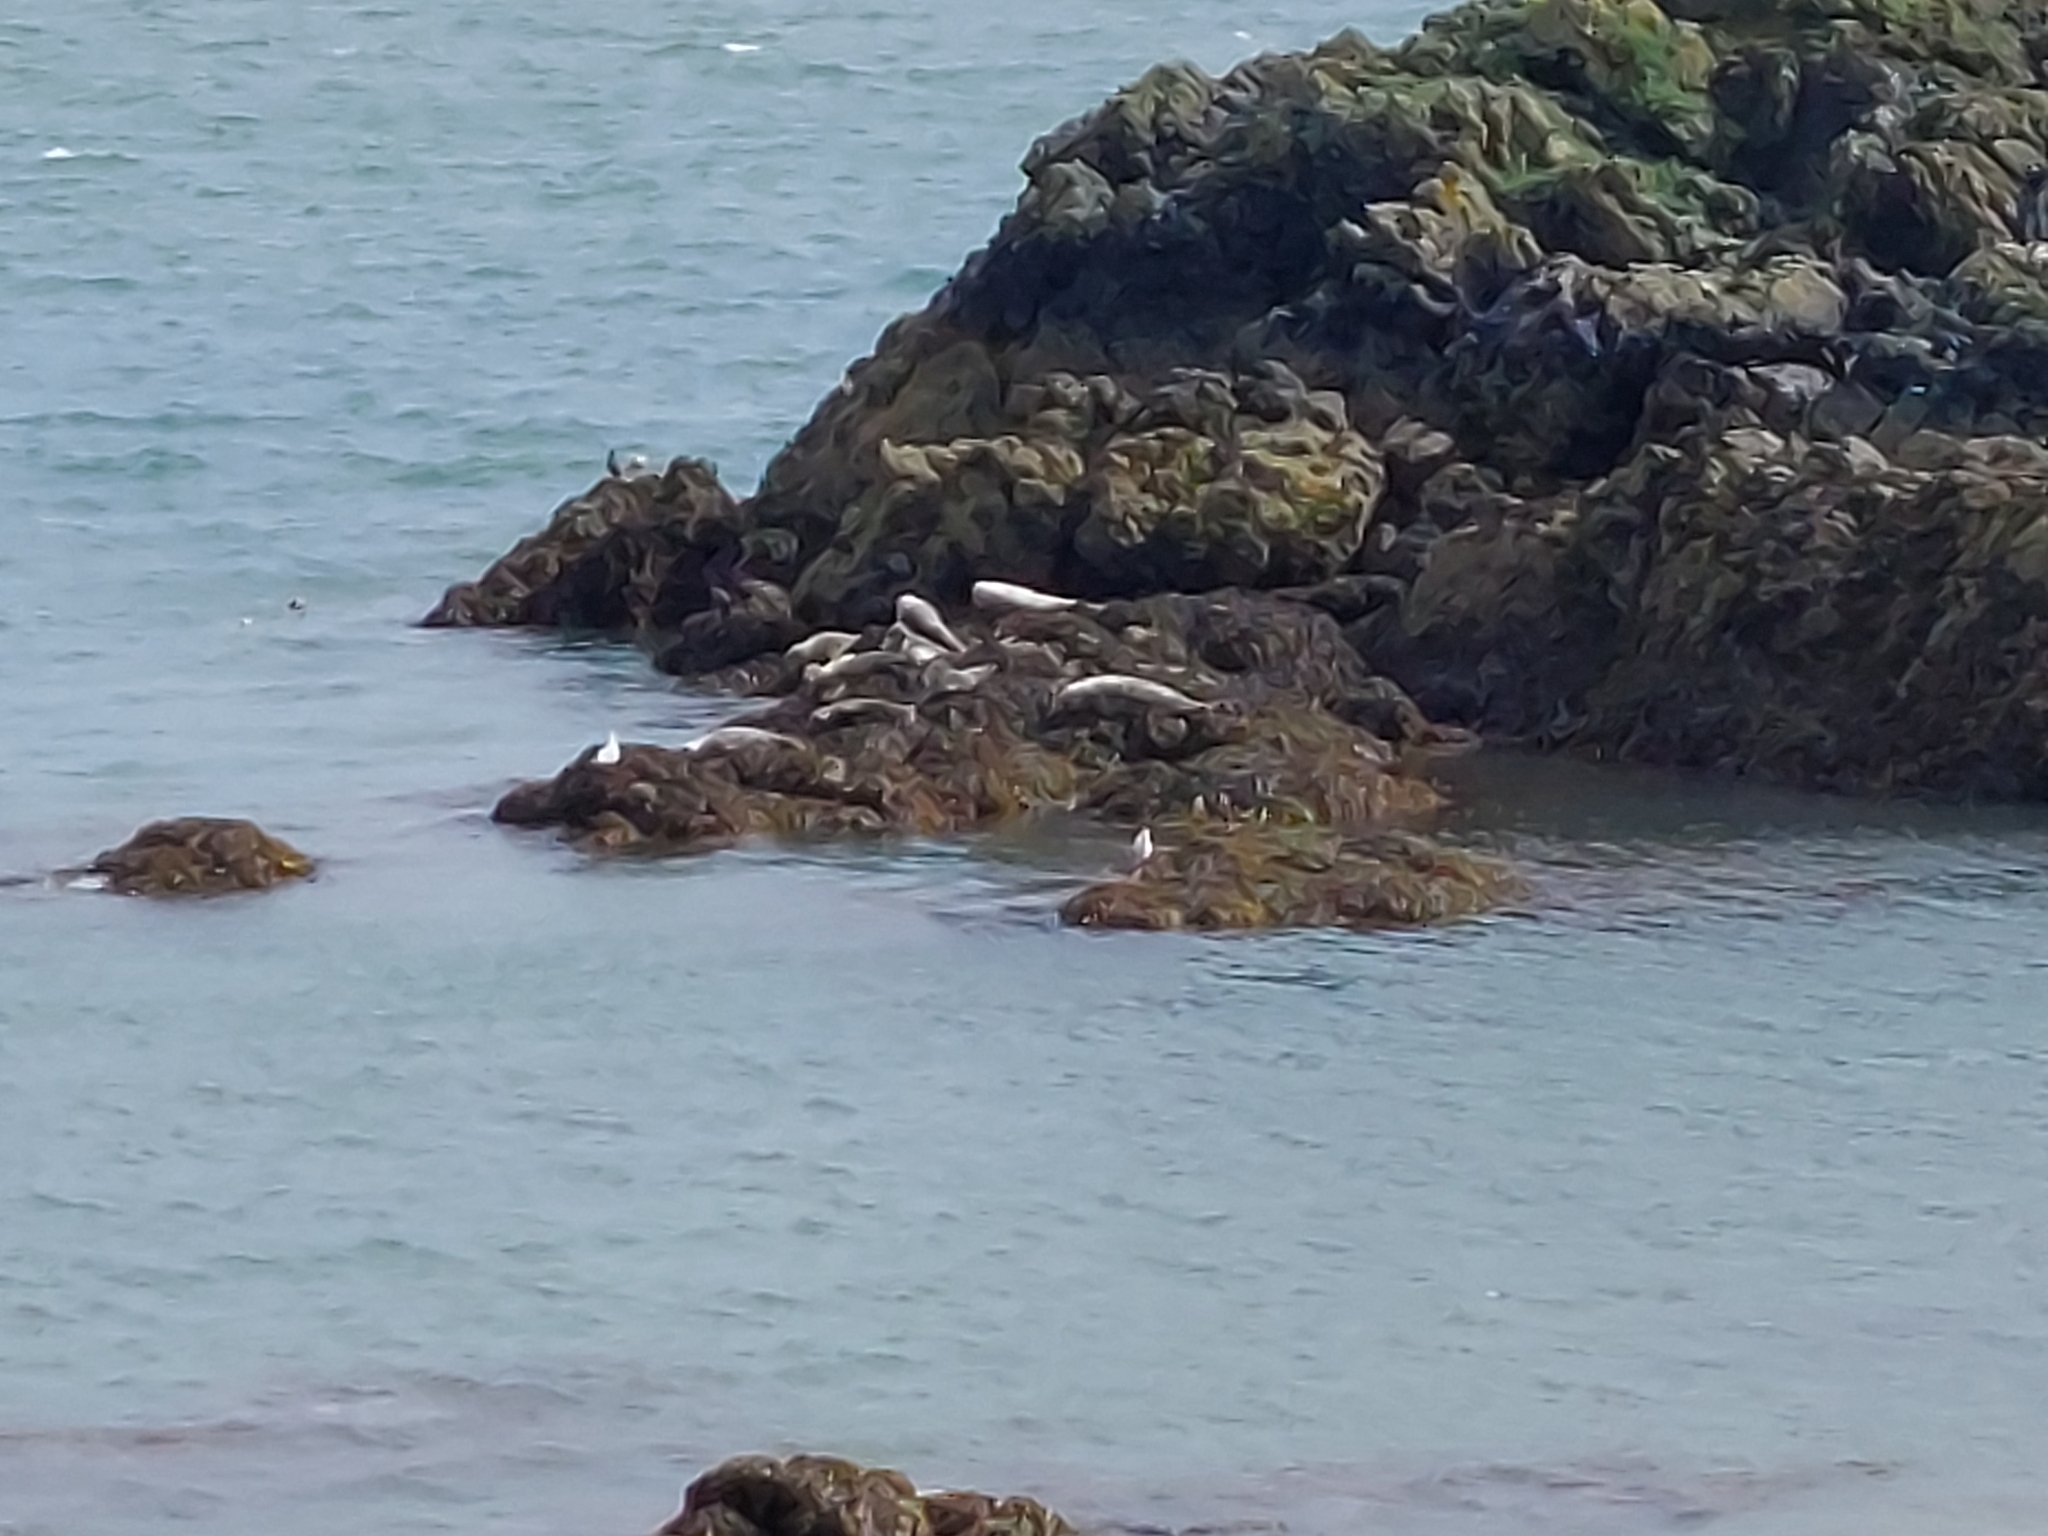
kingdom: Animalia
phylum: Chordata
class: Mammalia
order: Carnivora
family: Phocidae
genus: Halichoerus
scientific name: Halichoerus grypus
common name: Grey seal
